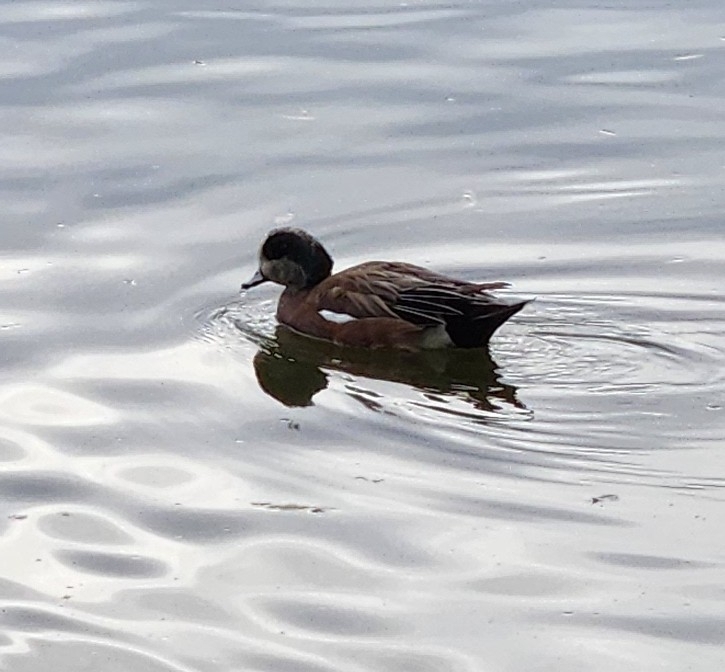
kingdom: Animalia
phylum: Chordata
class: Aves
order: Anseriformes
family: Anatidae
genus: Mareca
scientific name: Mareca americana
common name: American wigeon
